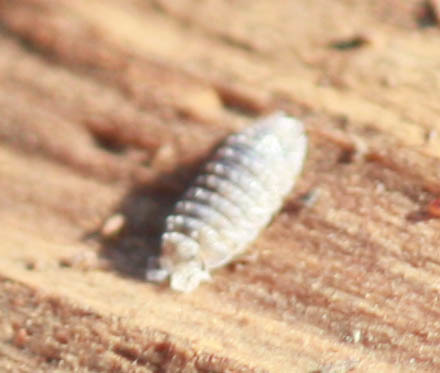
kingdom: Animalia
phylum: Arthropoda
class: Malacostraca
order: Isopoda
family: Detonidae
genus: Armadilloniscus
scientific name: Armadilloniscus coronacapitalis
